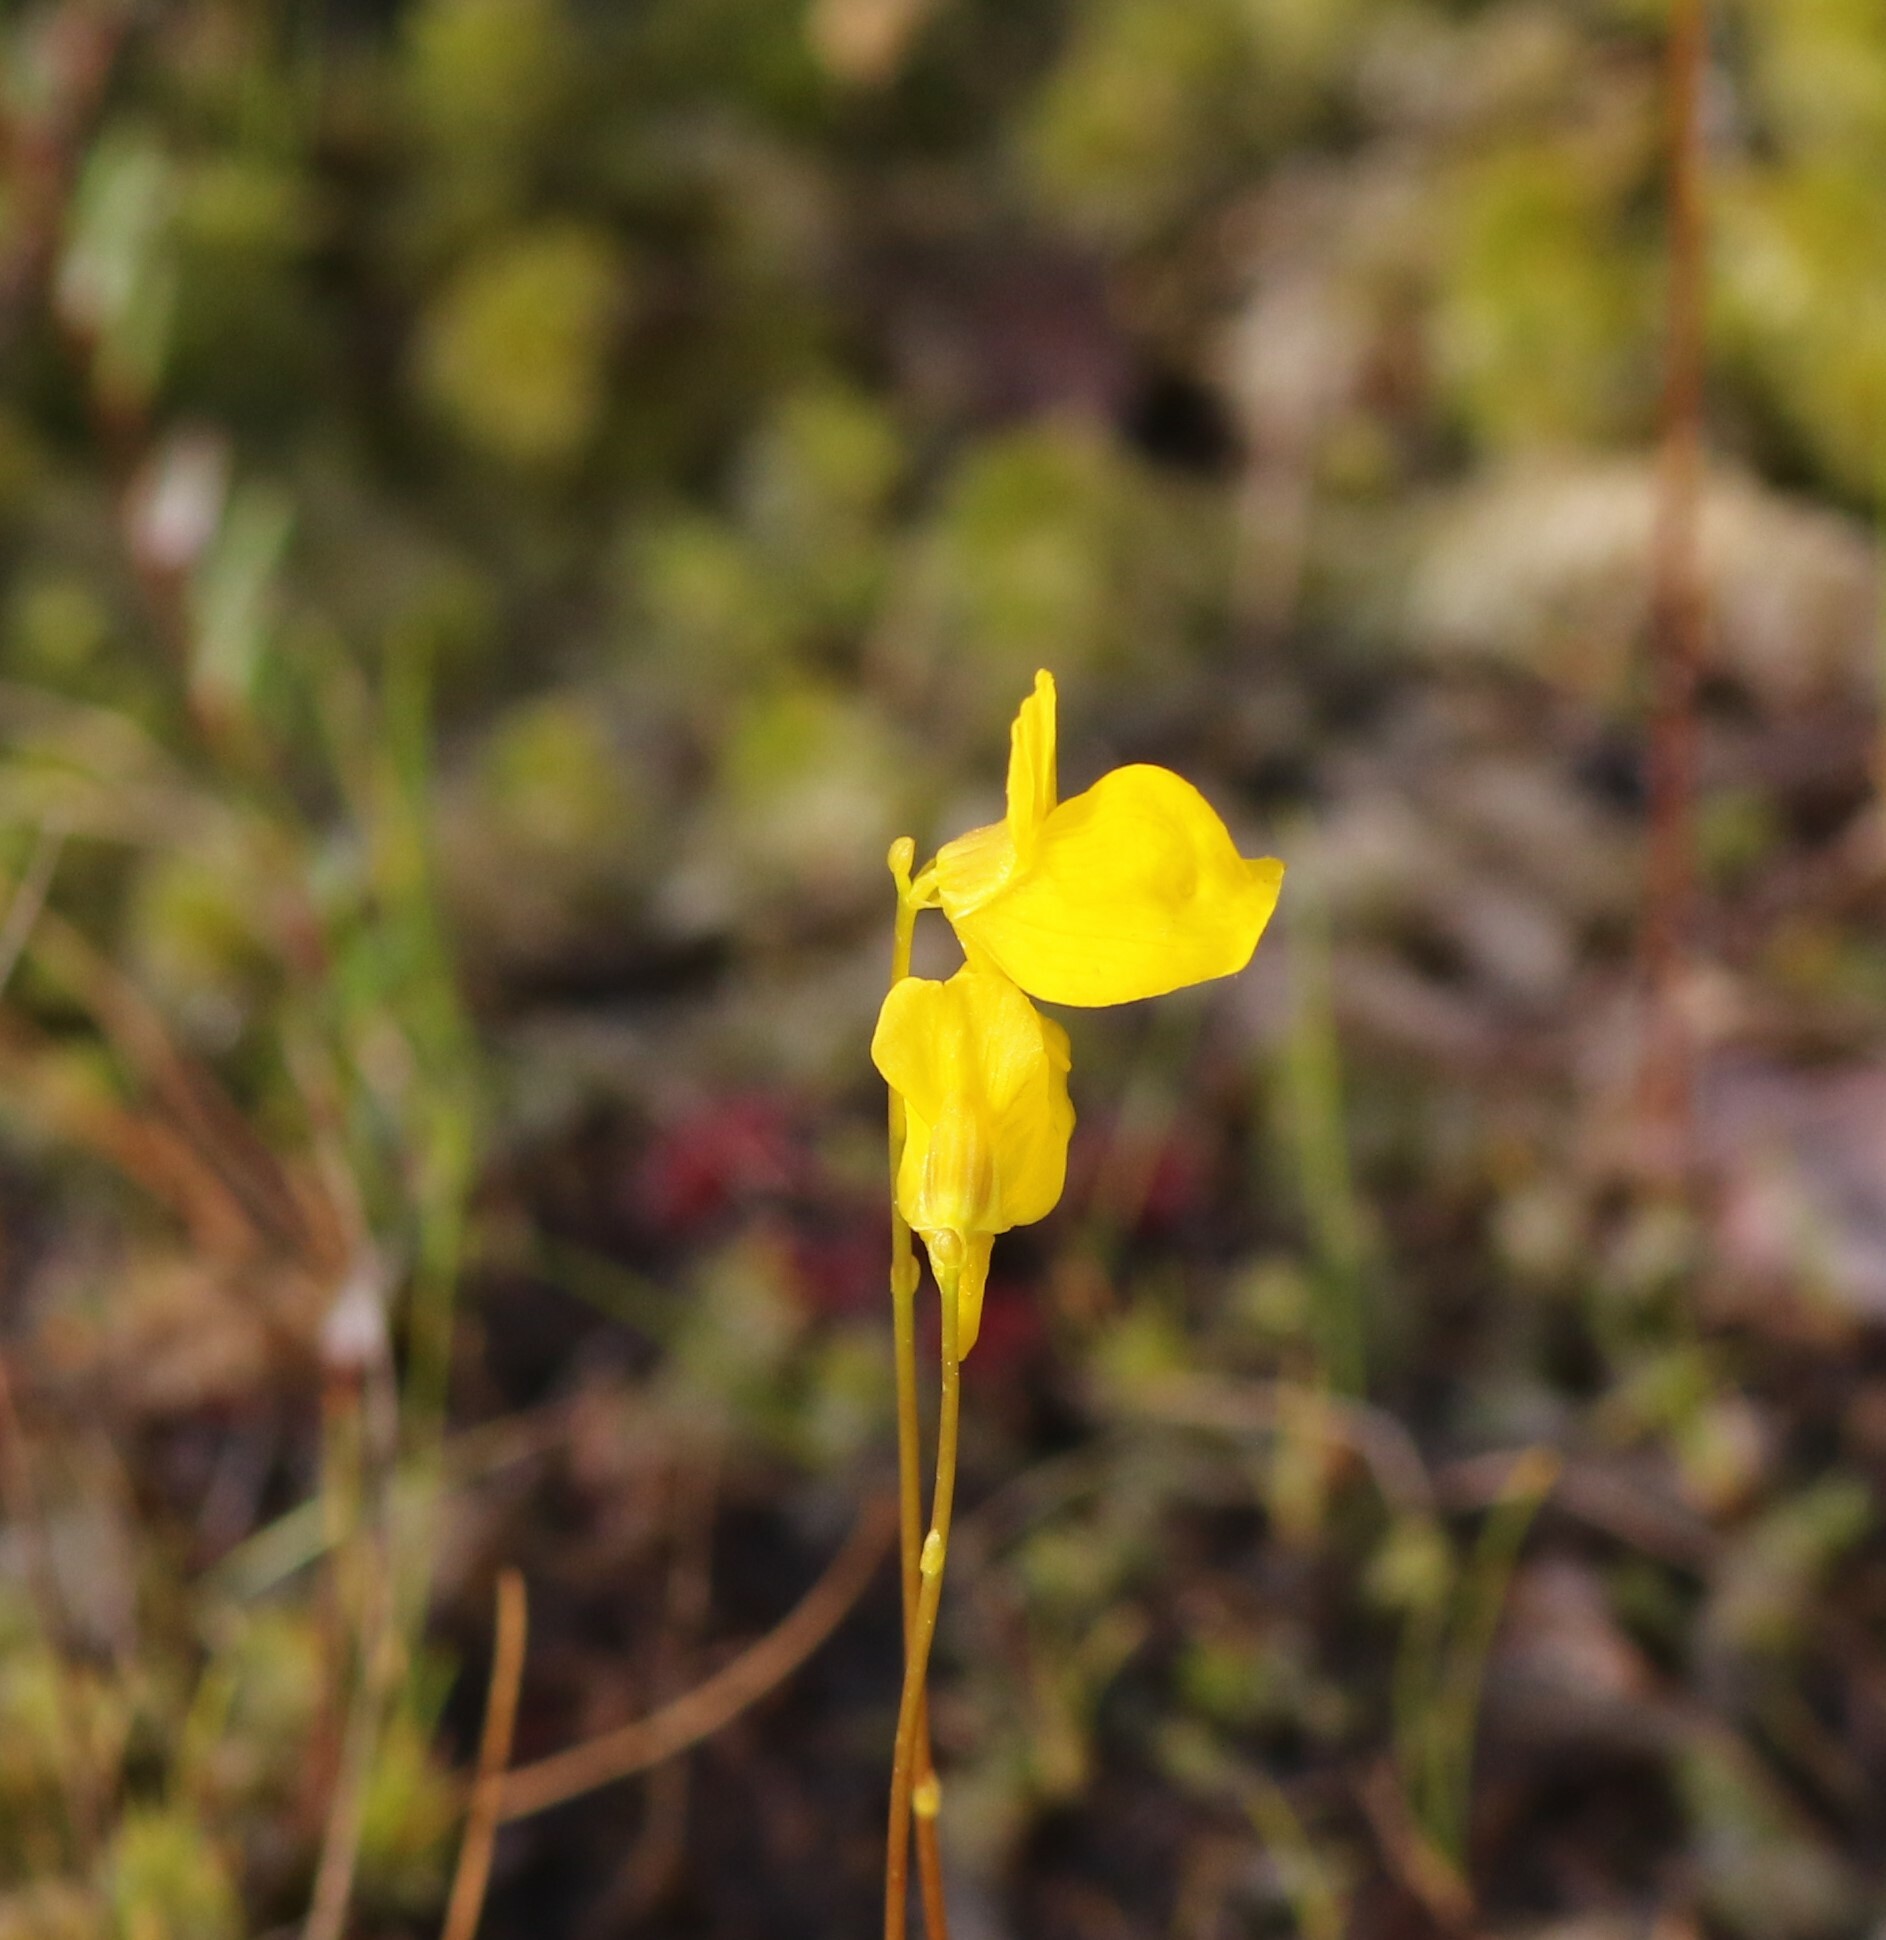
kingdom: Plantae
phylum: Tracheophyta
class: Magnoliopsida
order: Lamiales
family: Lentibulariaceae
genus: Utricularia
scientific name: Utricularia cornuta
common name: Horned bladderwort
